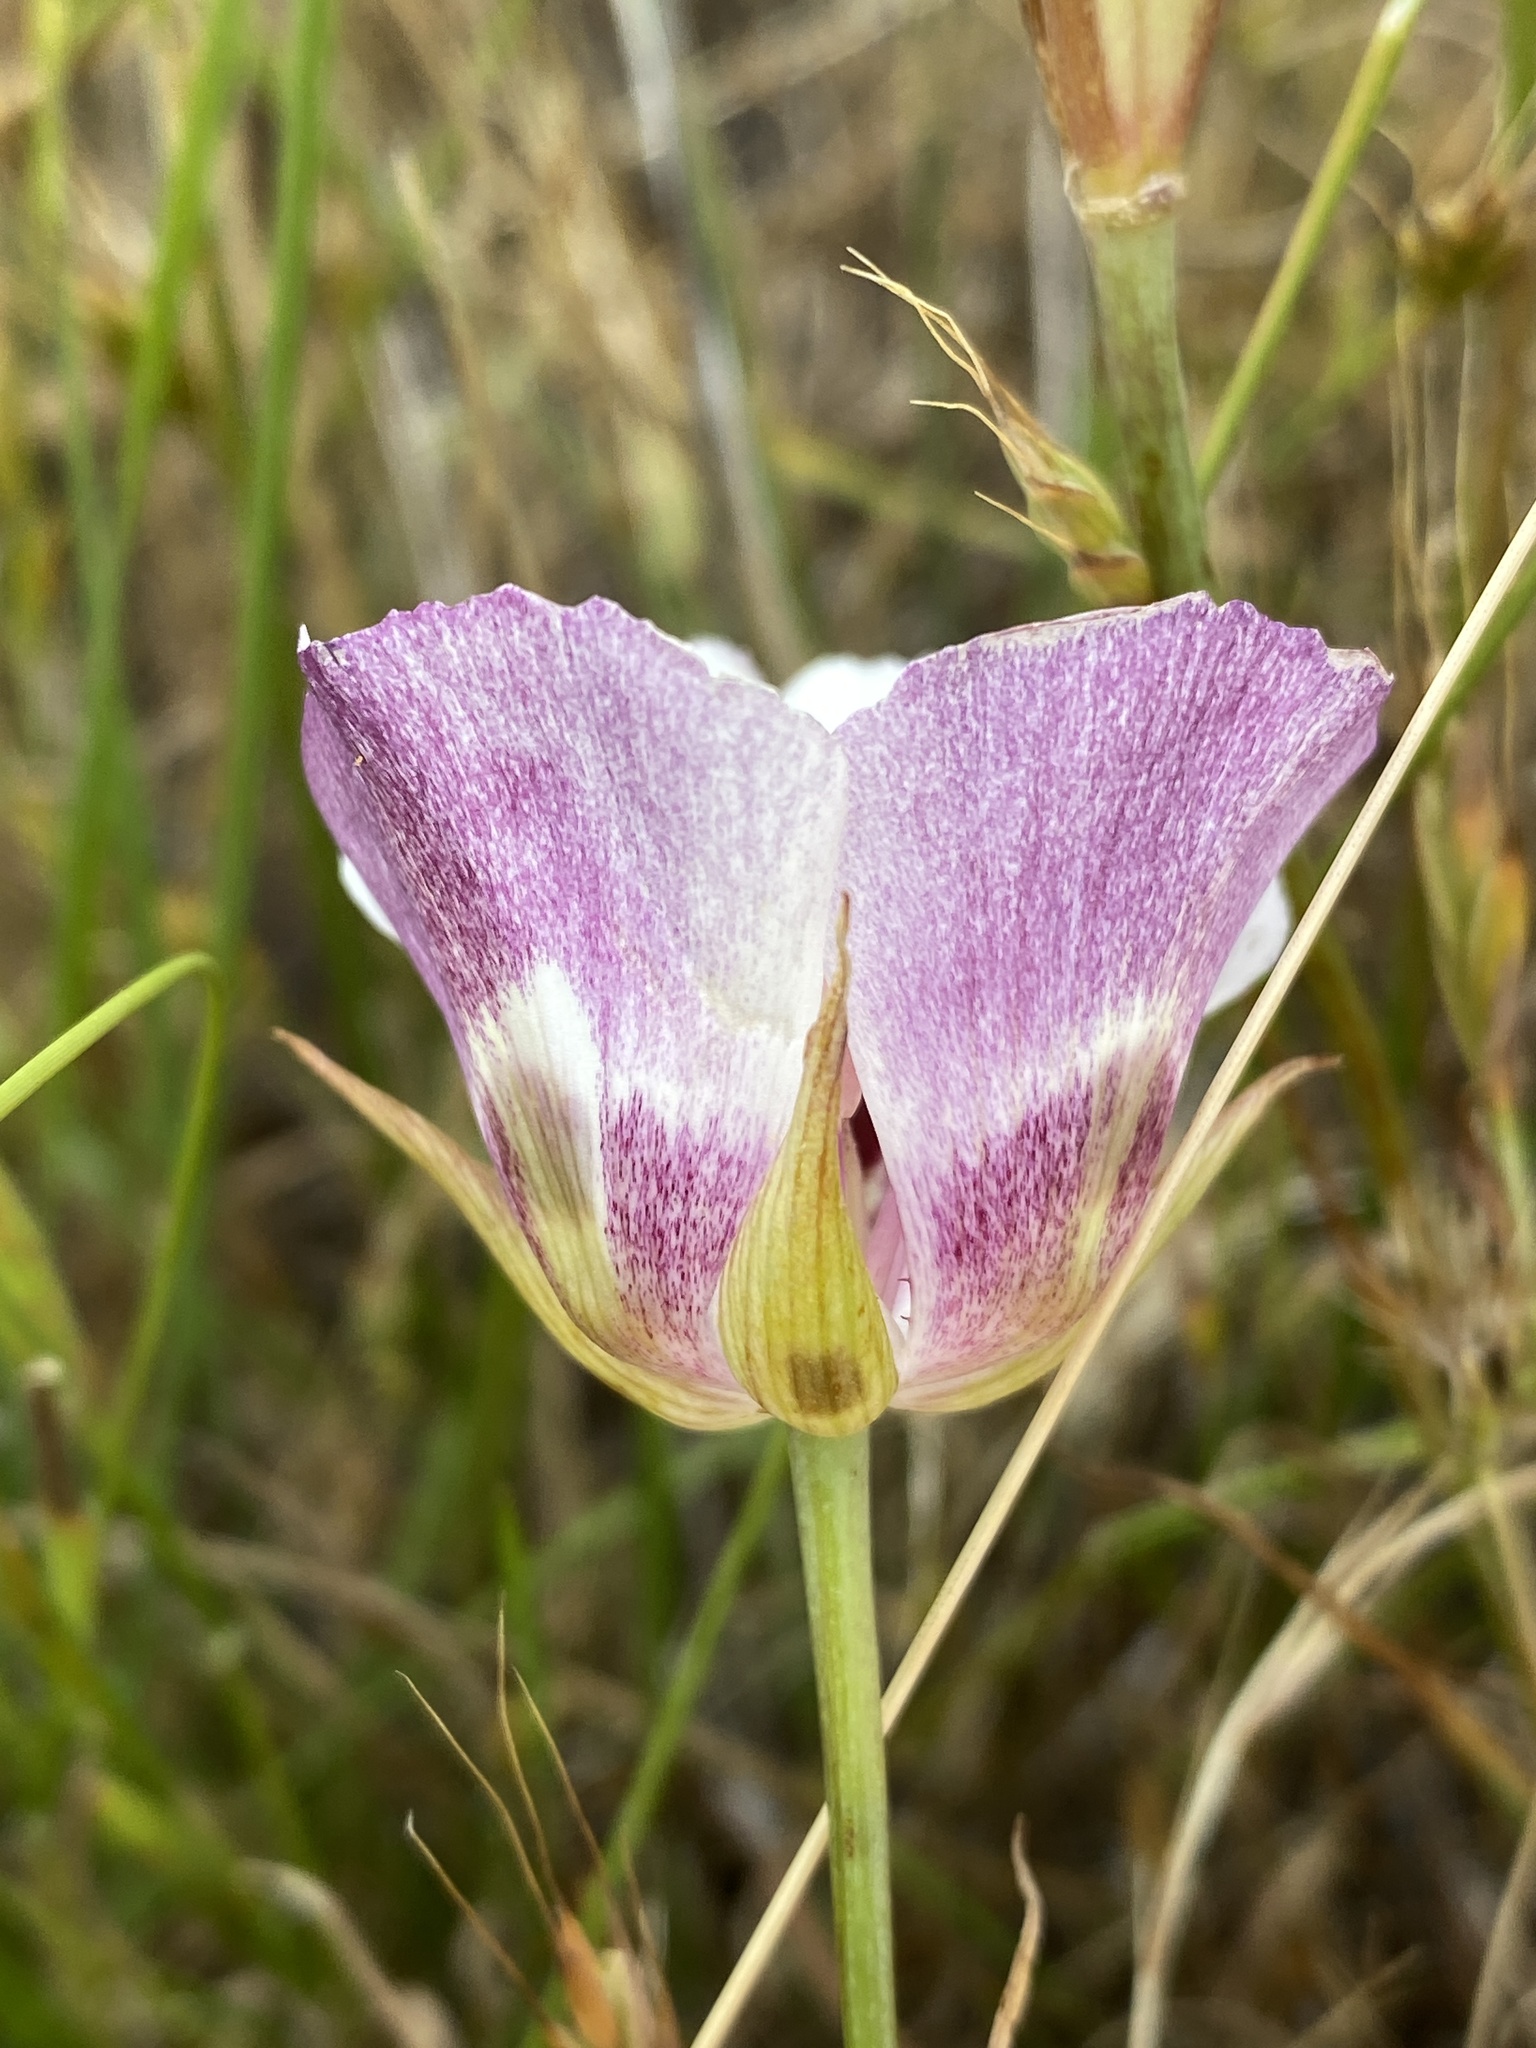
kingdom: Plantae
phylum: Tracheophyta
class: Liliopsida
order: Liliales
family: Liliaceae
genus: Calochortus
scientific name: Calochortus argillosus
